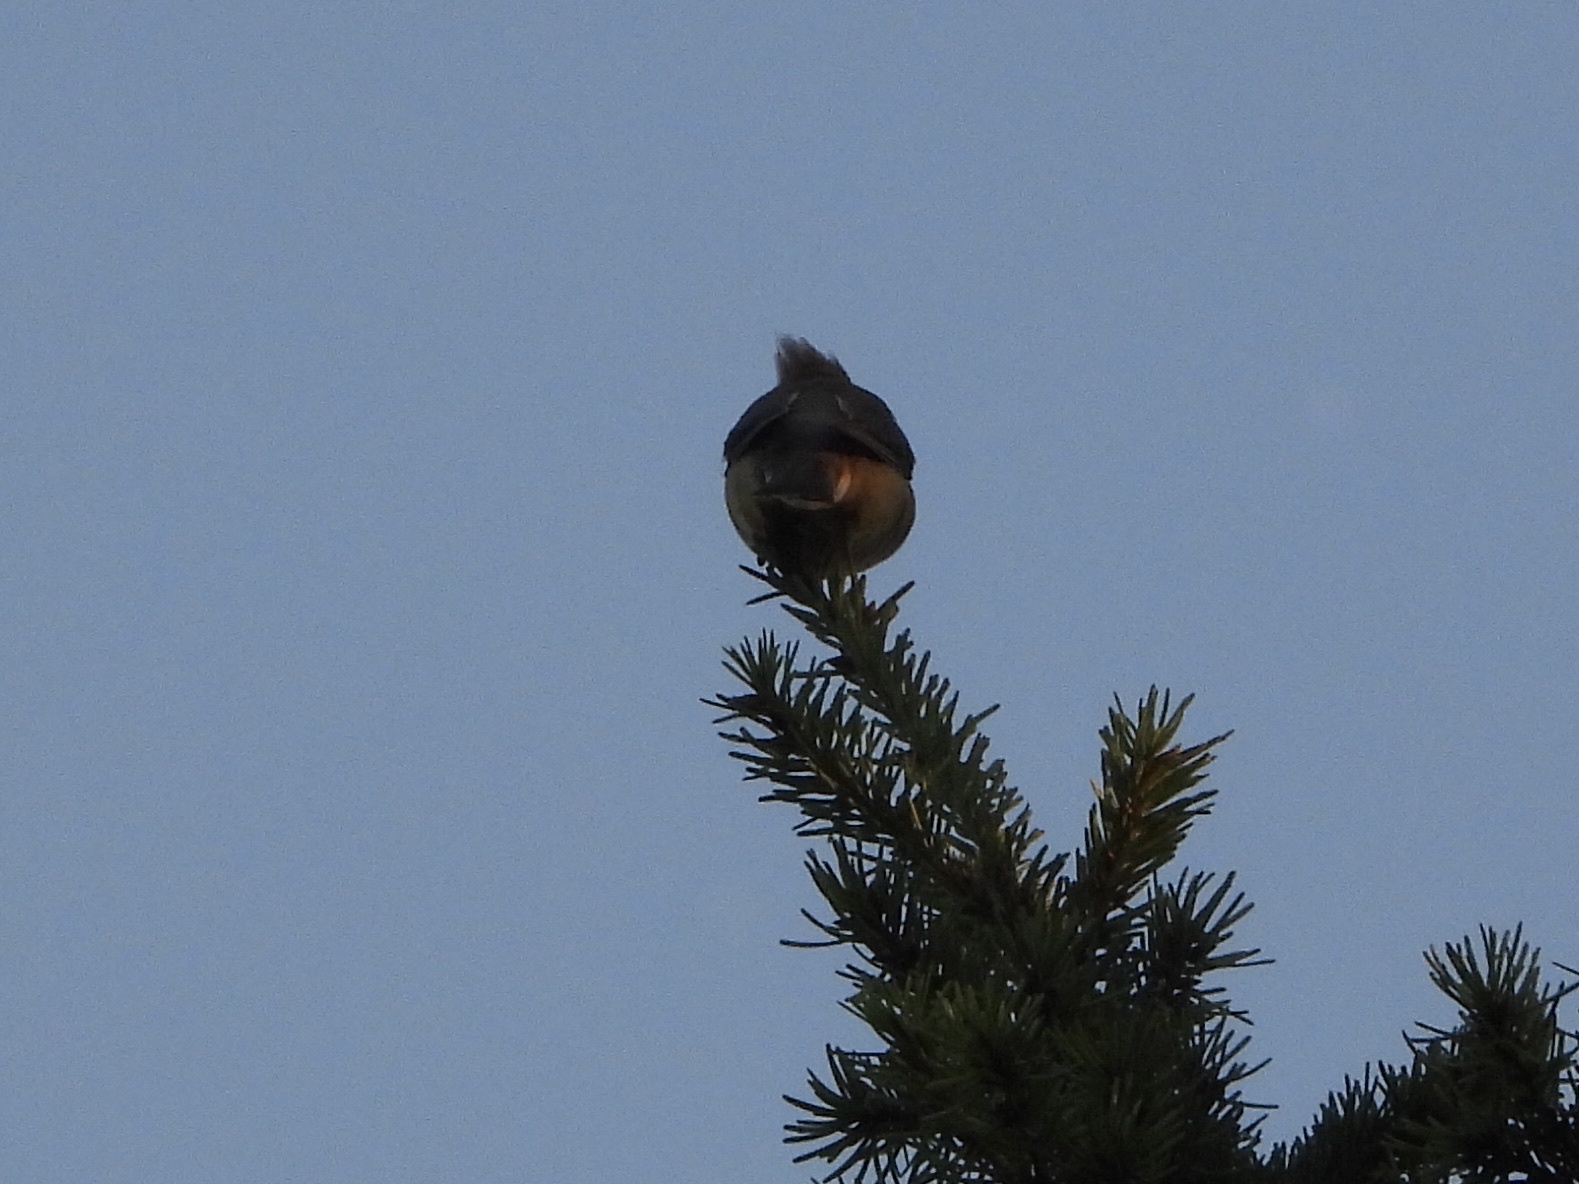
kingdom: Animalia
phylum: Chordata
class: Aves
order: Passeriformes
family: Bombycillidae
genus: Bombycilla
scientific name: Bombycilla cedrorum
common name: Cedar waxwing
